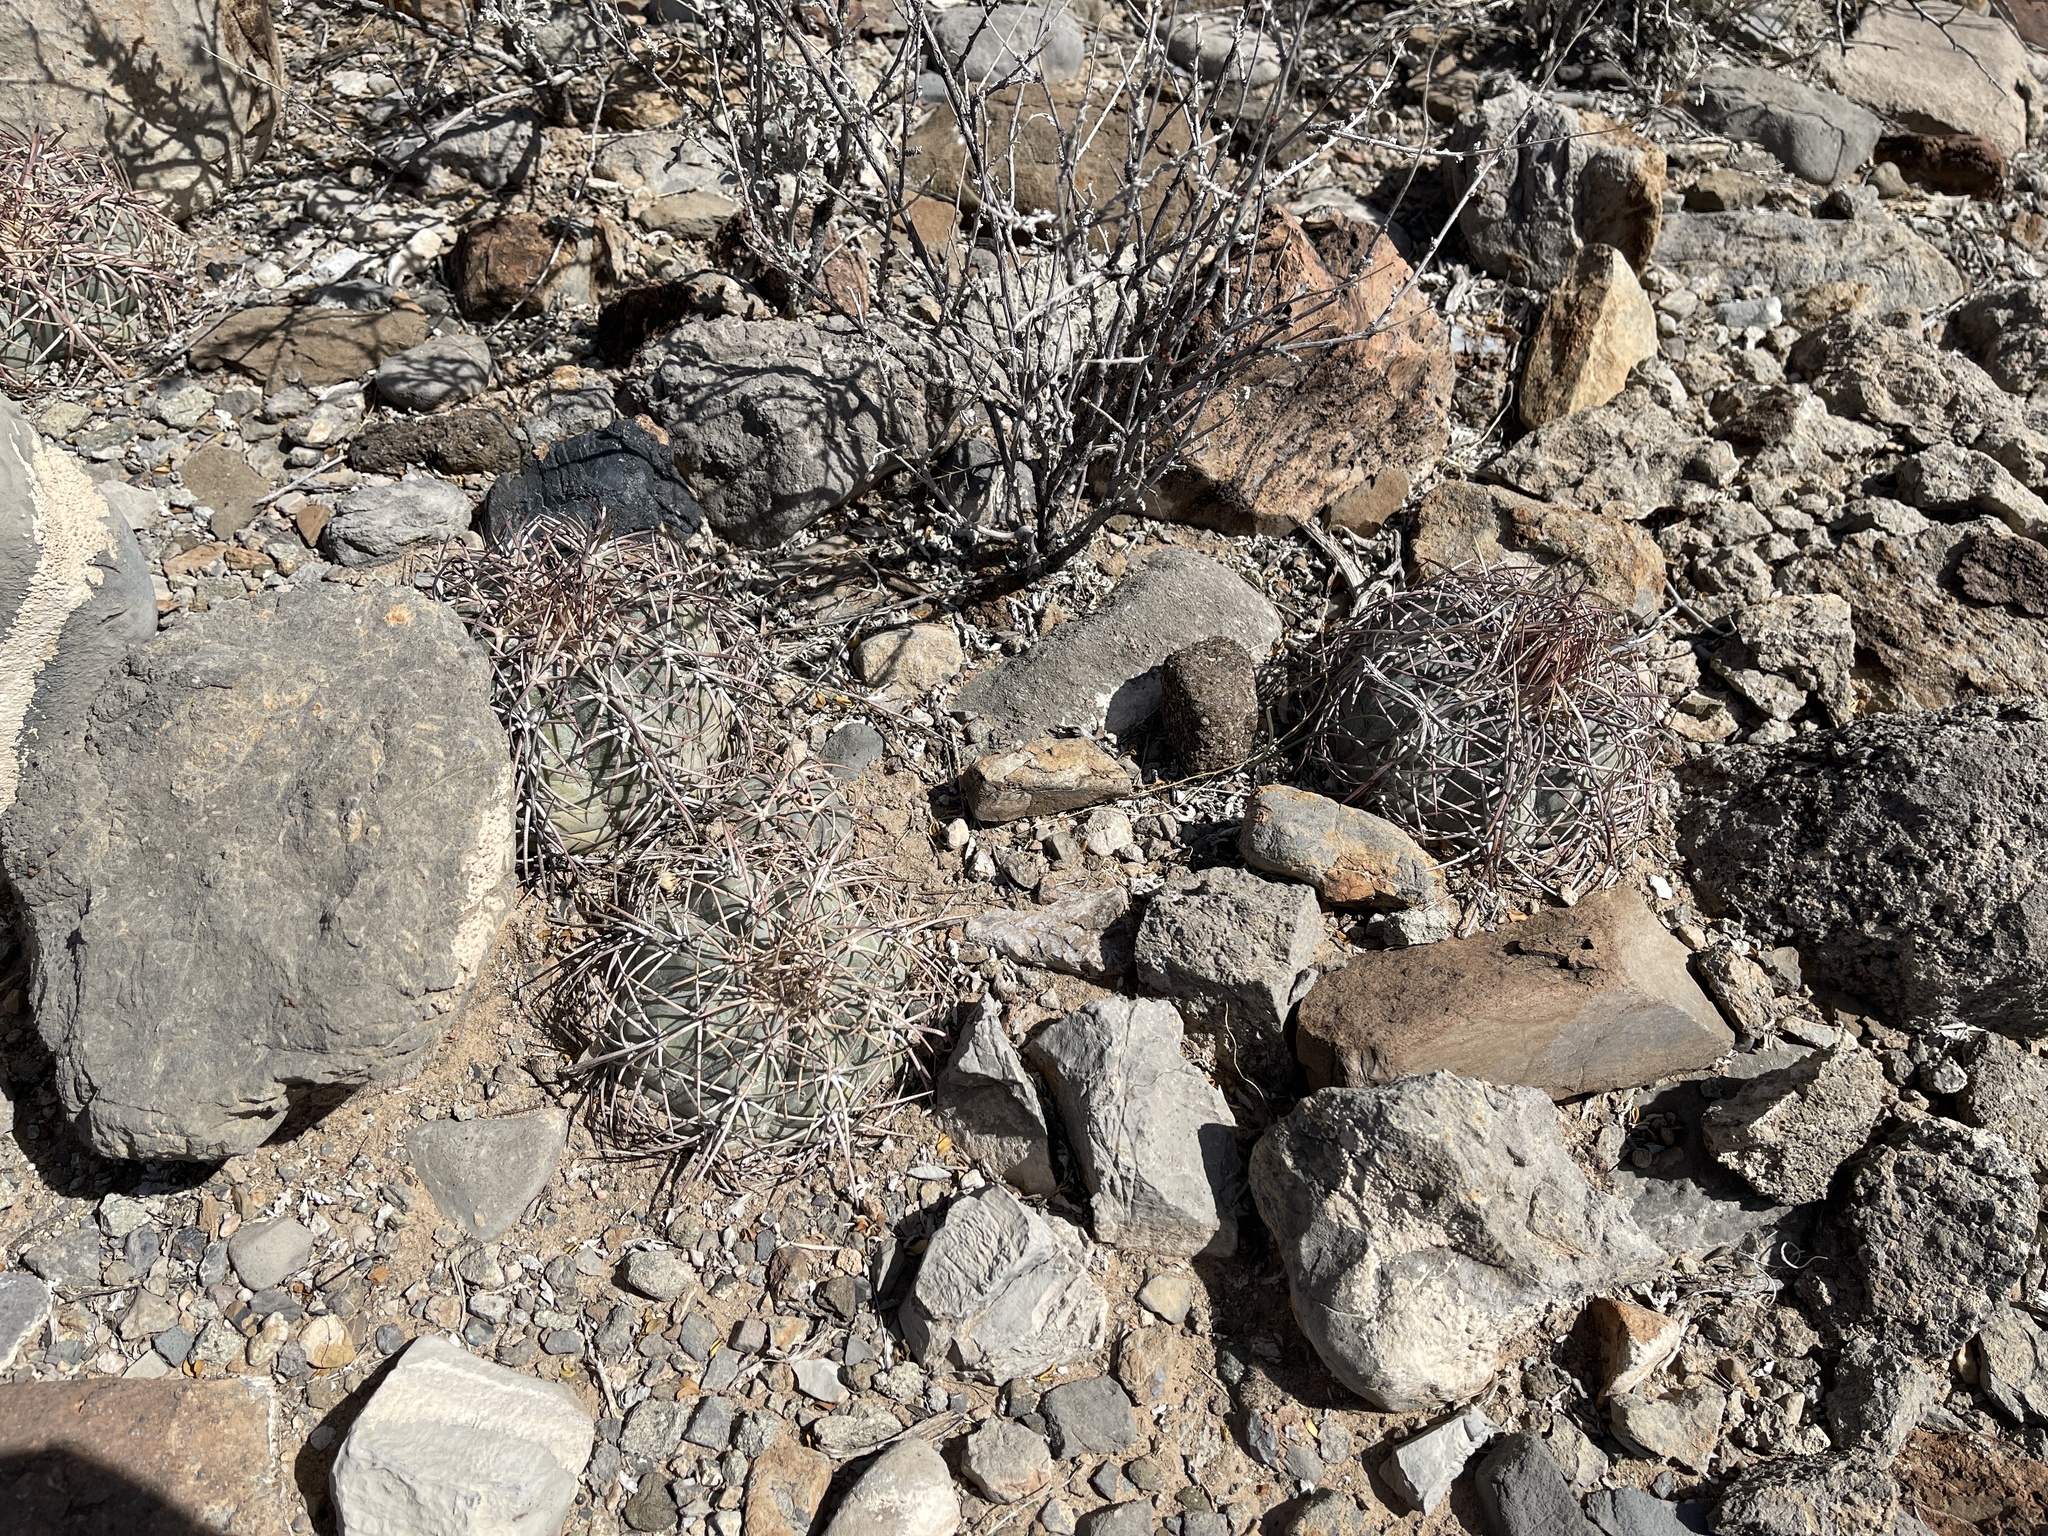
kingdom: Plantae
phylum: Tracheophyta
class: Magnoliopsida
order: Caryophyllales
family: Cactaceae
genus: Echinocactus
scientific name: Echinocactus horizonthalonius
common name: Devilshead
